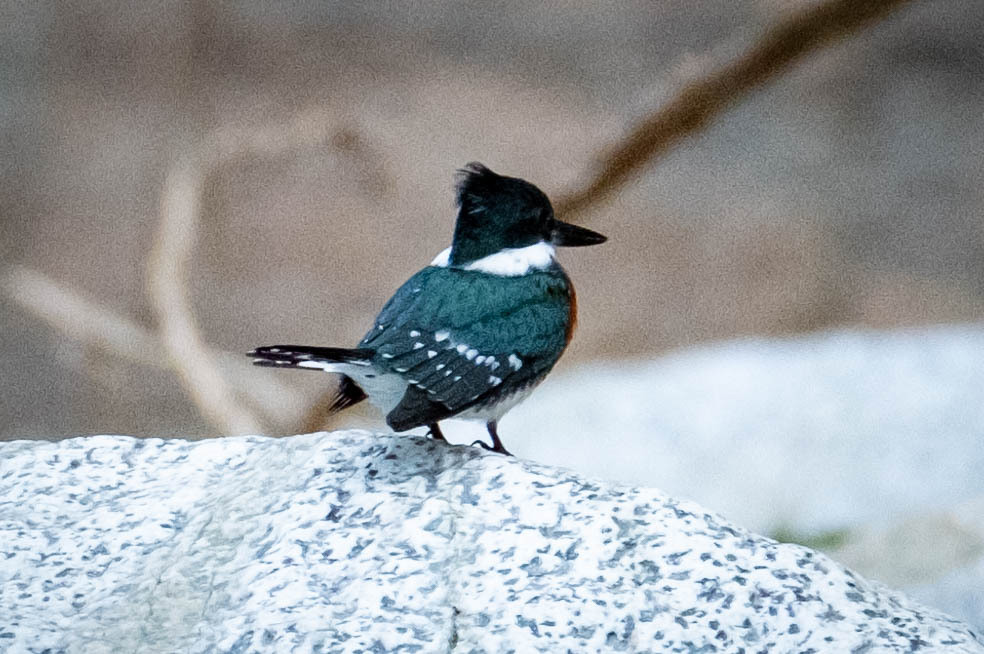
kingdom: Animalia
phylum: Chordata
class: Aves
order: Coraciiformes
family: Alcedinidae
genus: Chloroceryle
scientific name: Chloroceryle americana
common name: Green kingfisher
